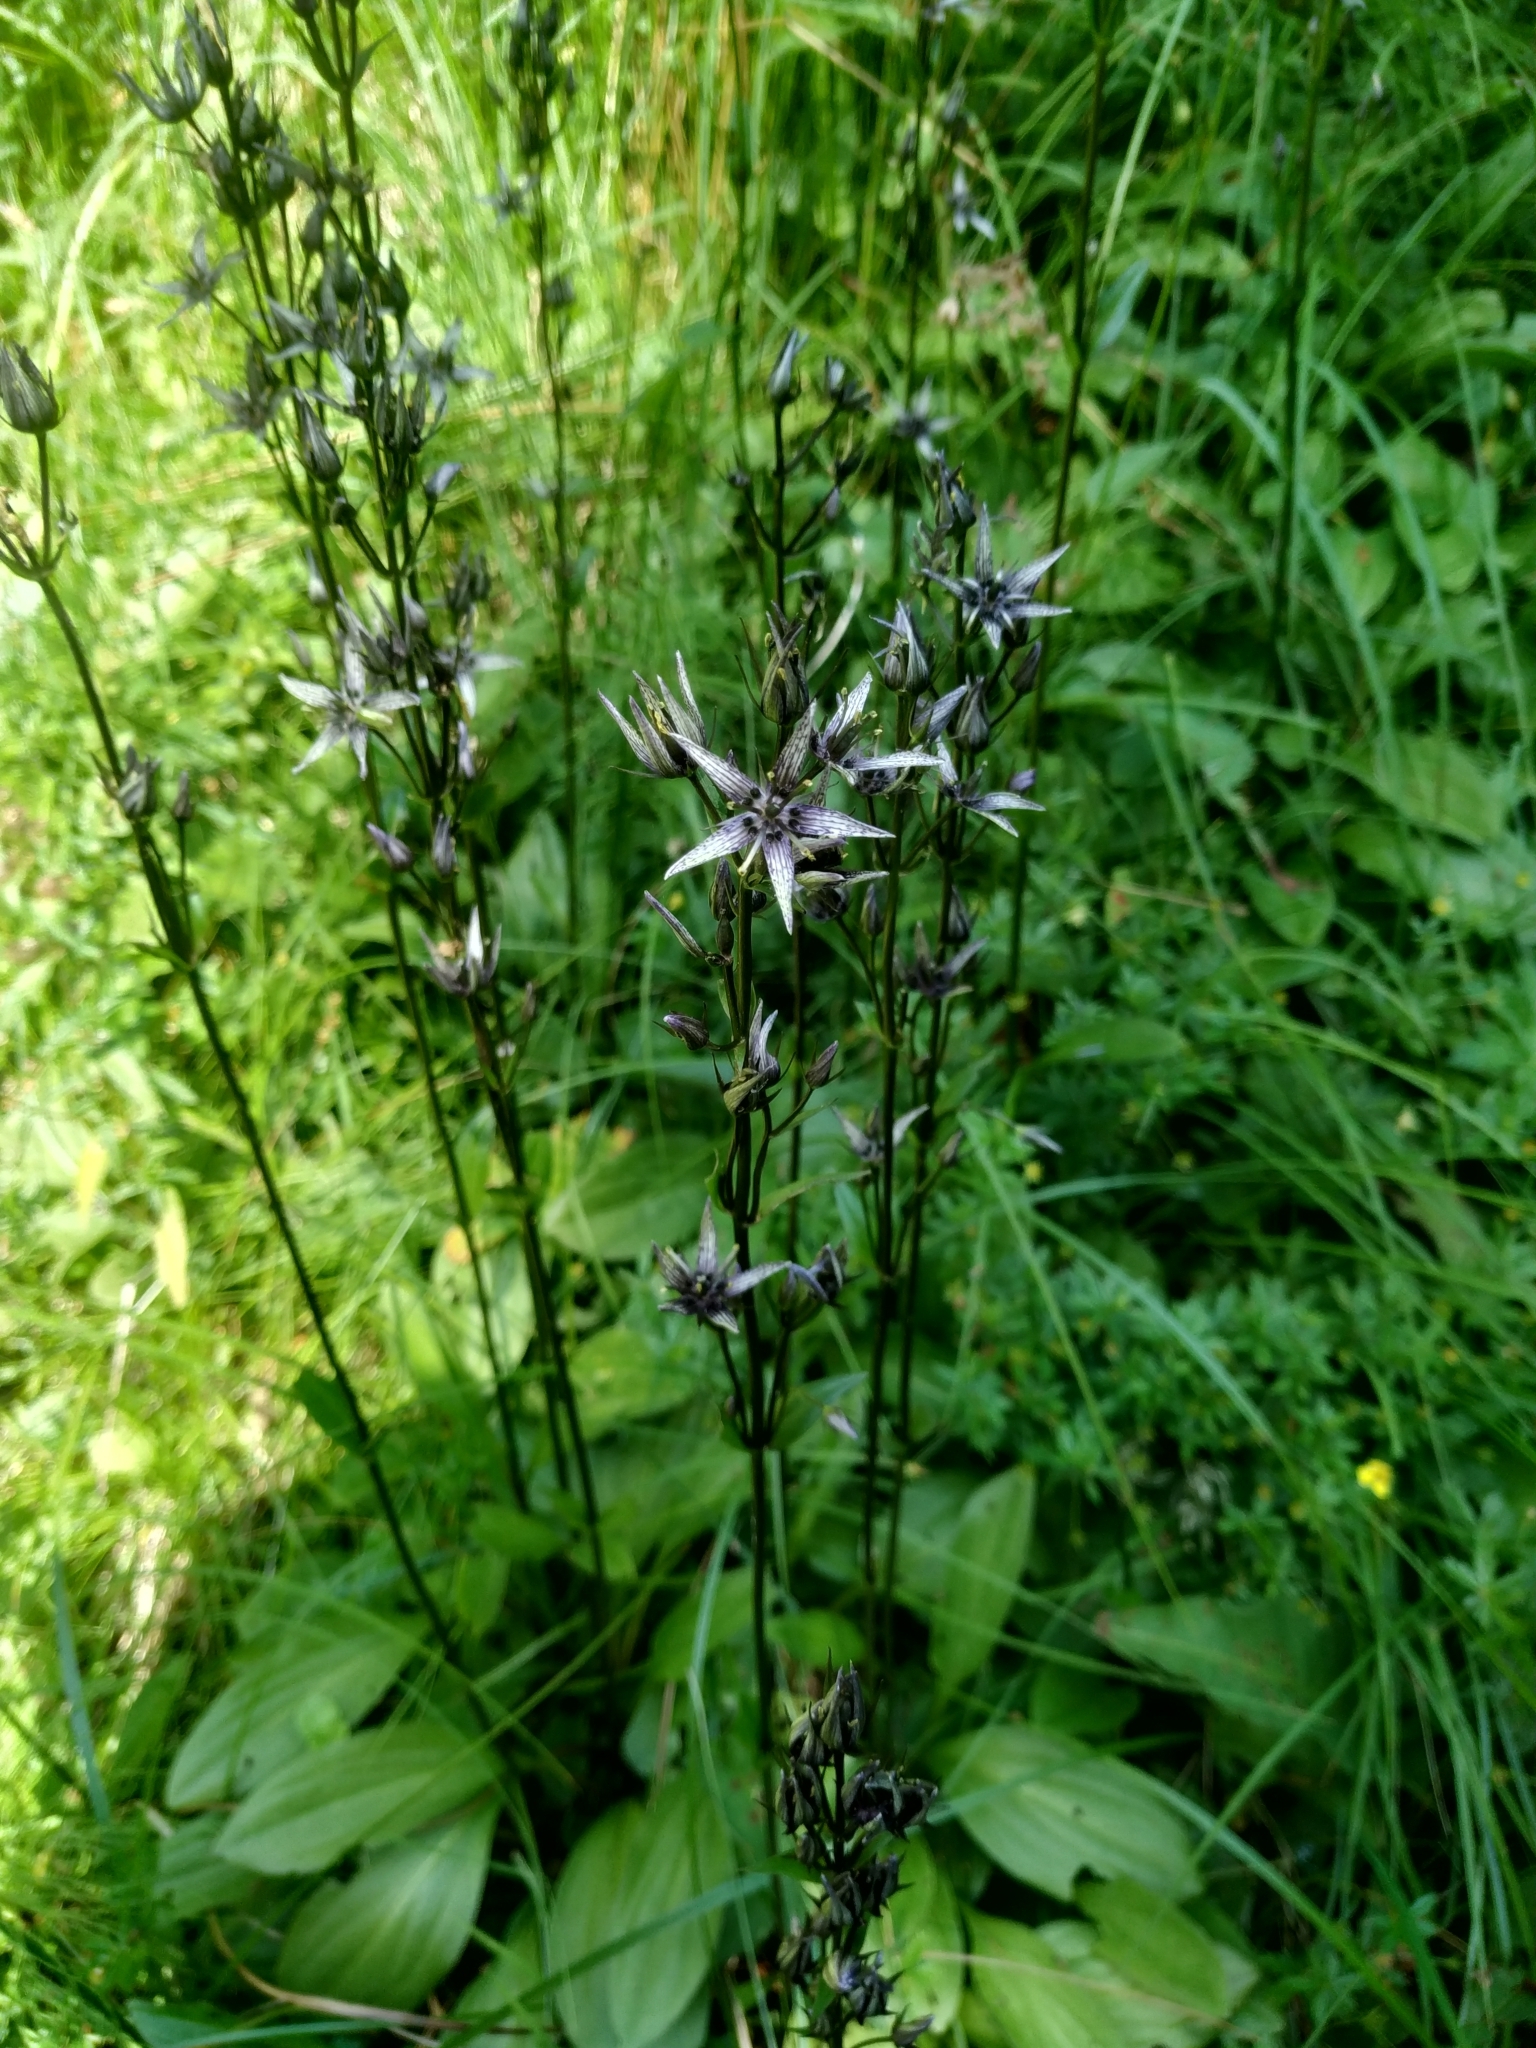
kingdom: Plantae
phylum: Tracheophyta
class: Magnoliopsida
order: Gentianales
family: Gentianaceae
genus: Swertia
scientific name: Swertia perennis
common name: Alpine bog swertia
